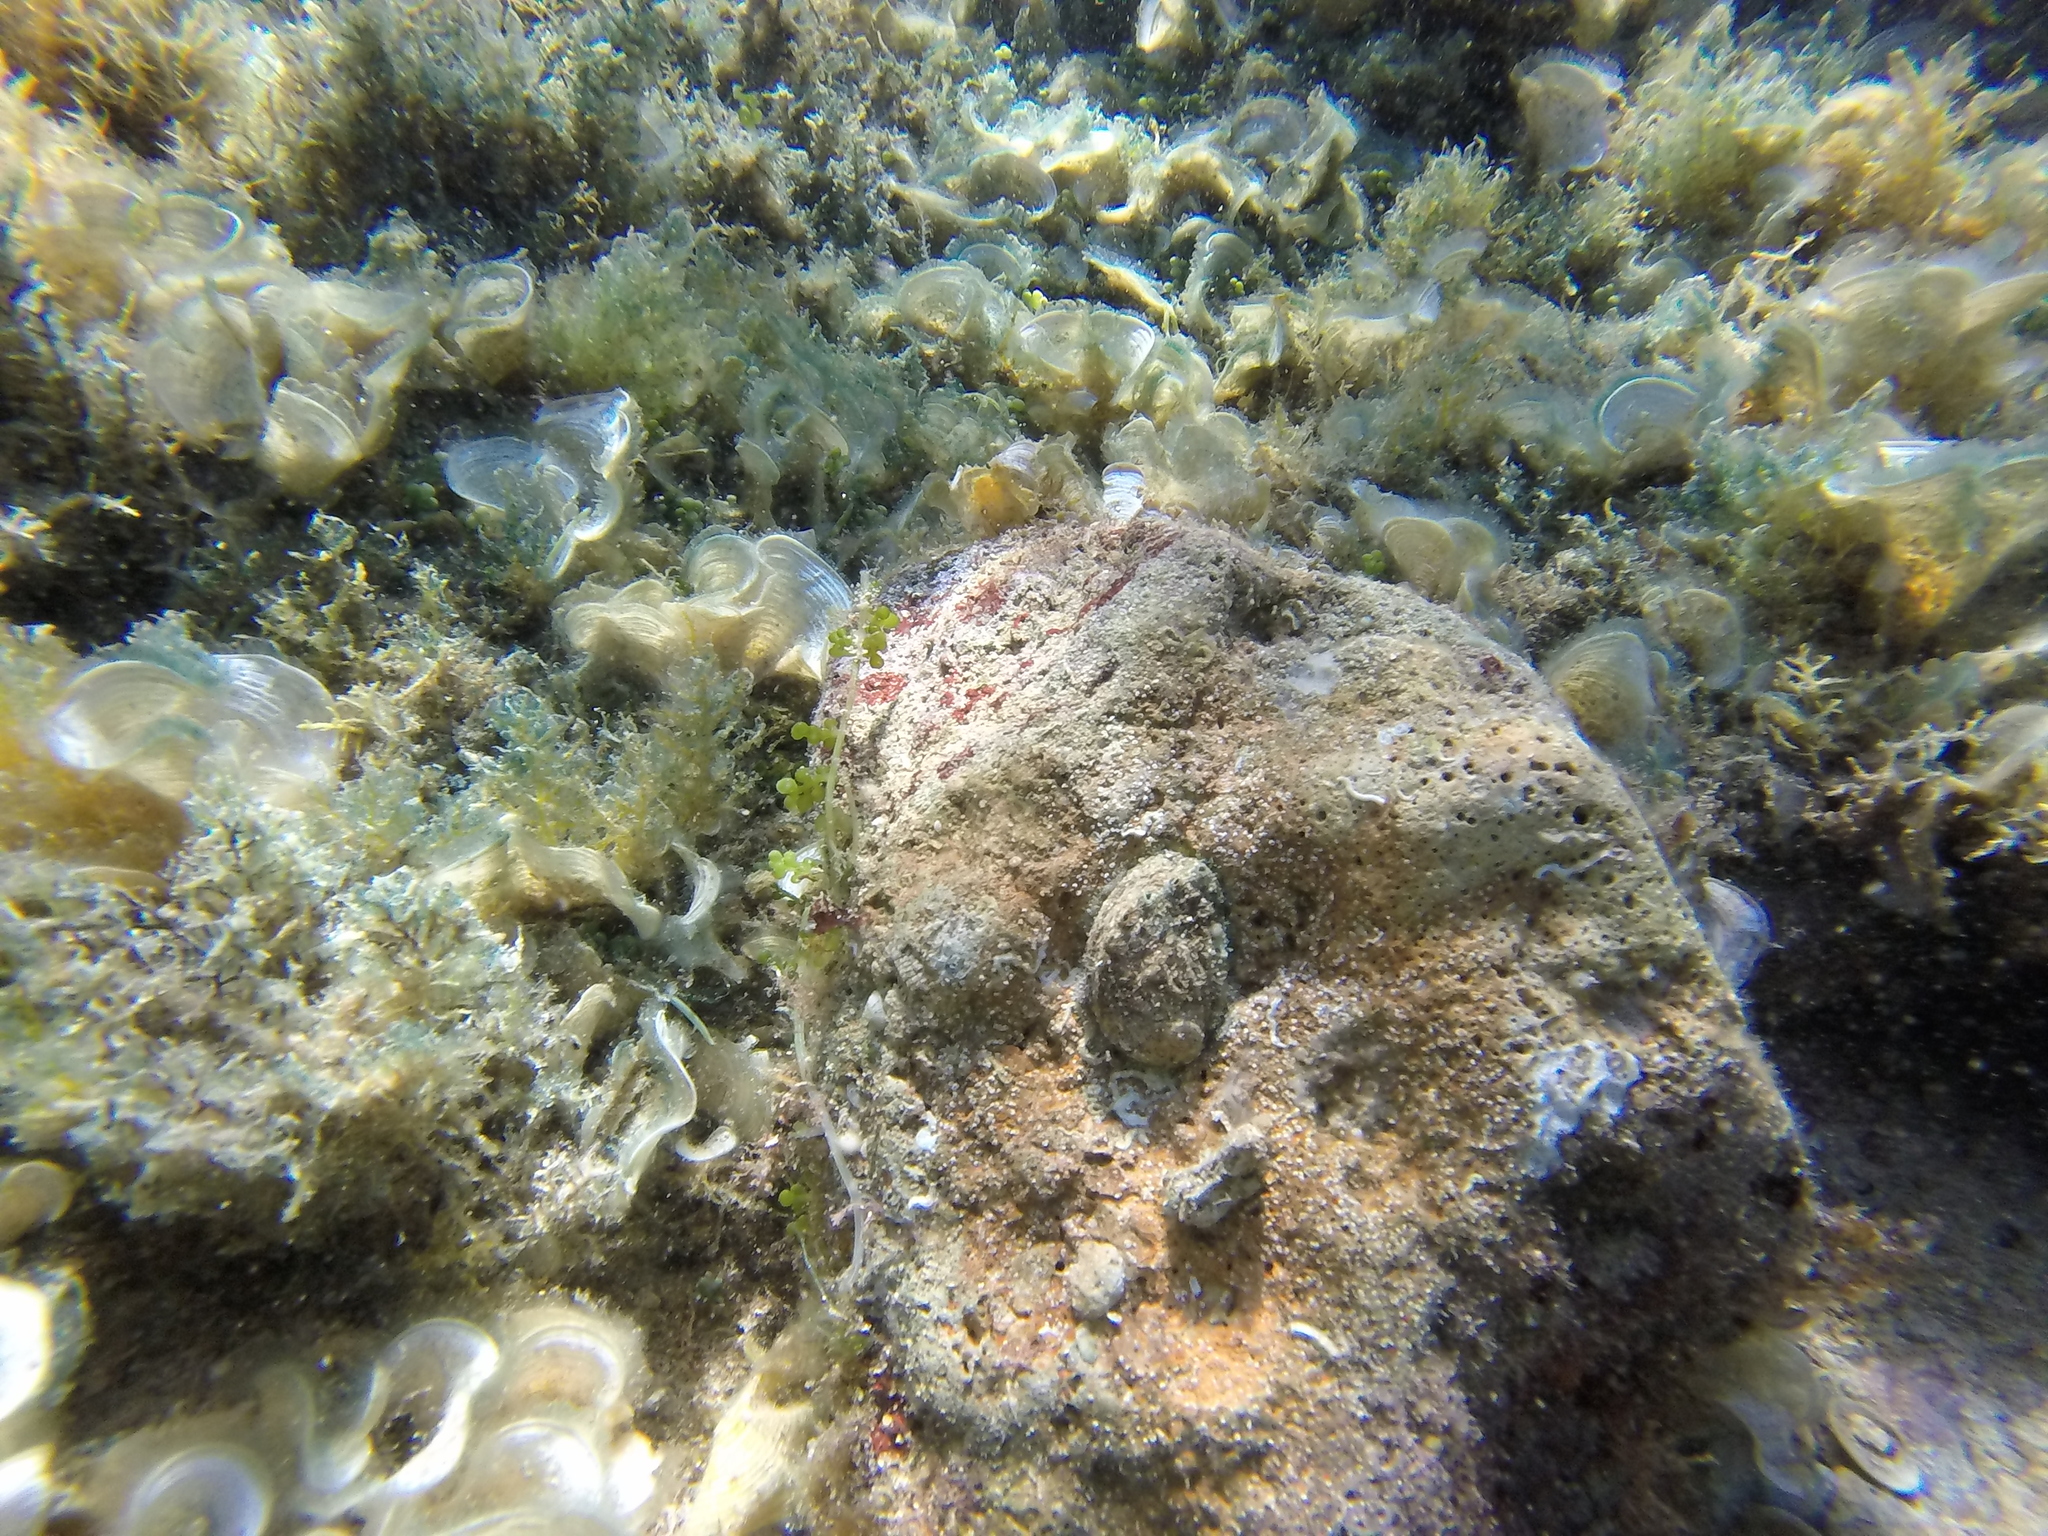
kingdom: Animalia
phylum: Mollusca
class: Gastropoda
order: Lepetellida
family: Haliotidae
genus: Haliotis
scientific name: Haliotis tuberculata
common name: Green ormer
